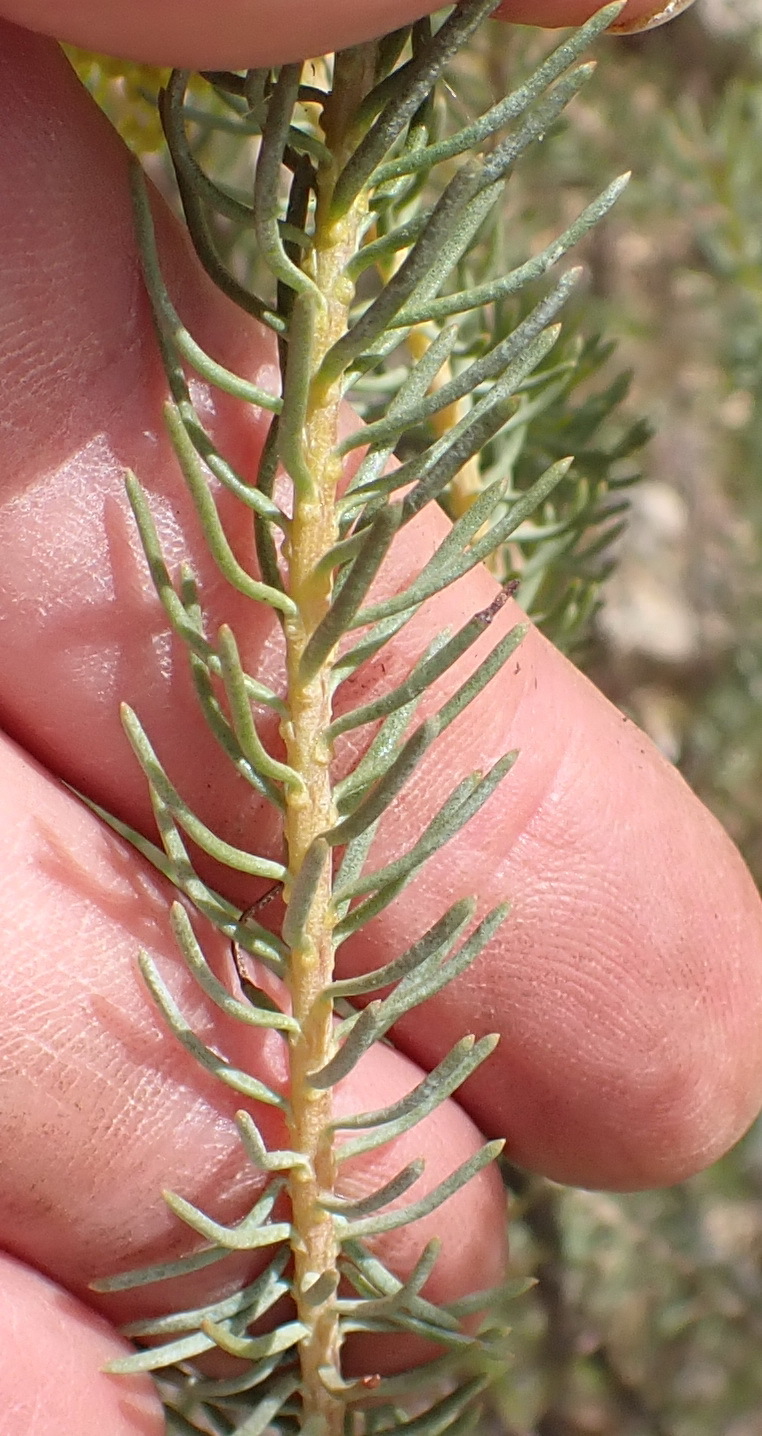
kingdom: Plantae
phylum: Tracheophyta
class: Magnoliopsida
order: Asterales
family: Asteraceae
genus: Athanasia
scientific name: Athanasia vestita
